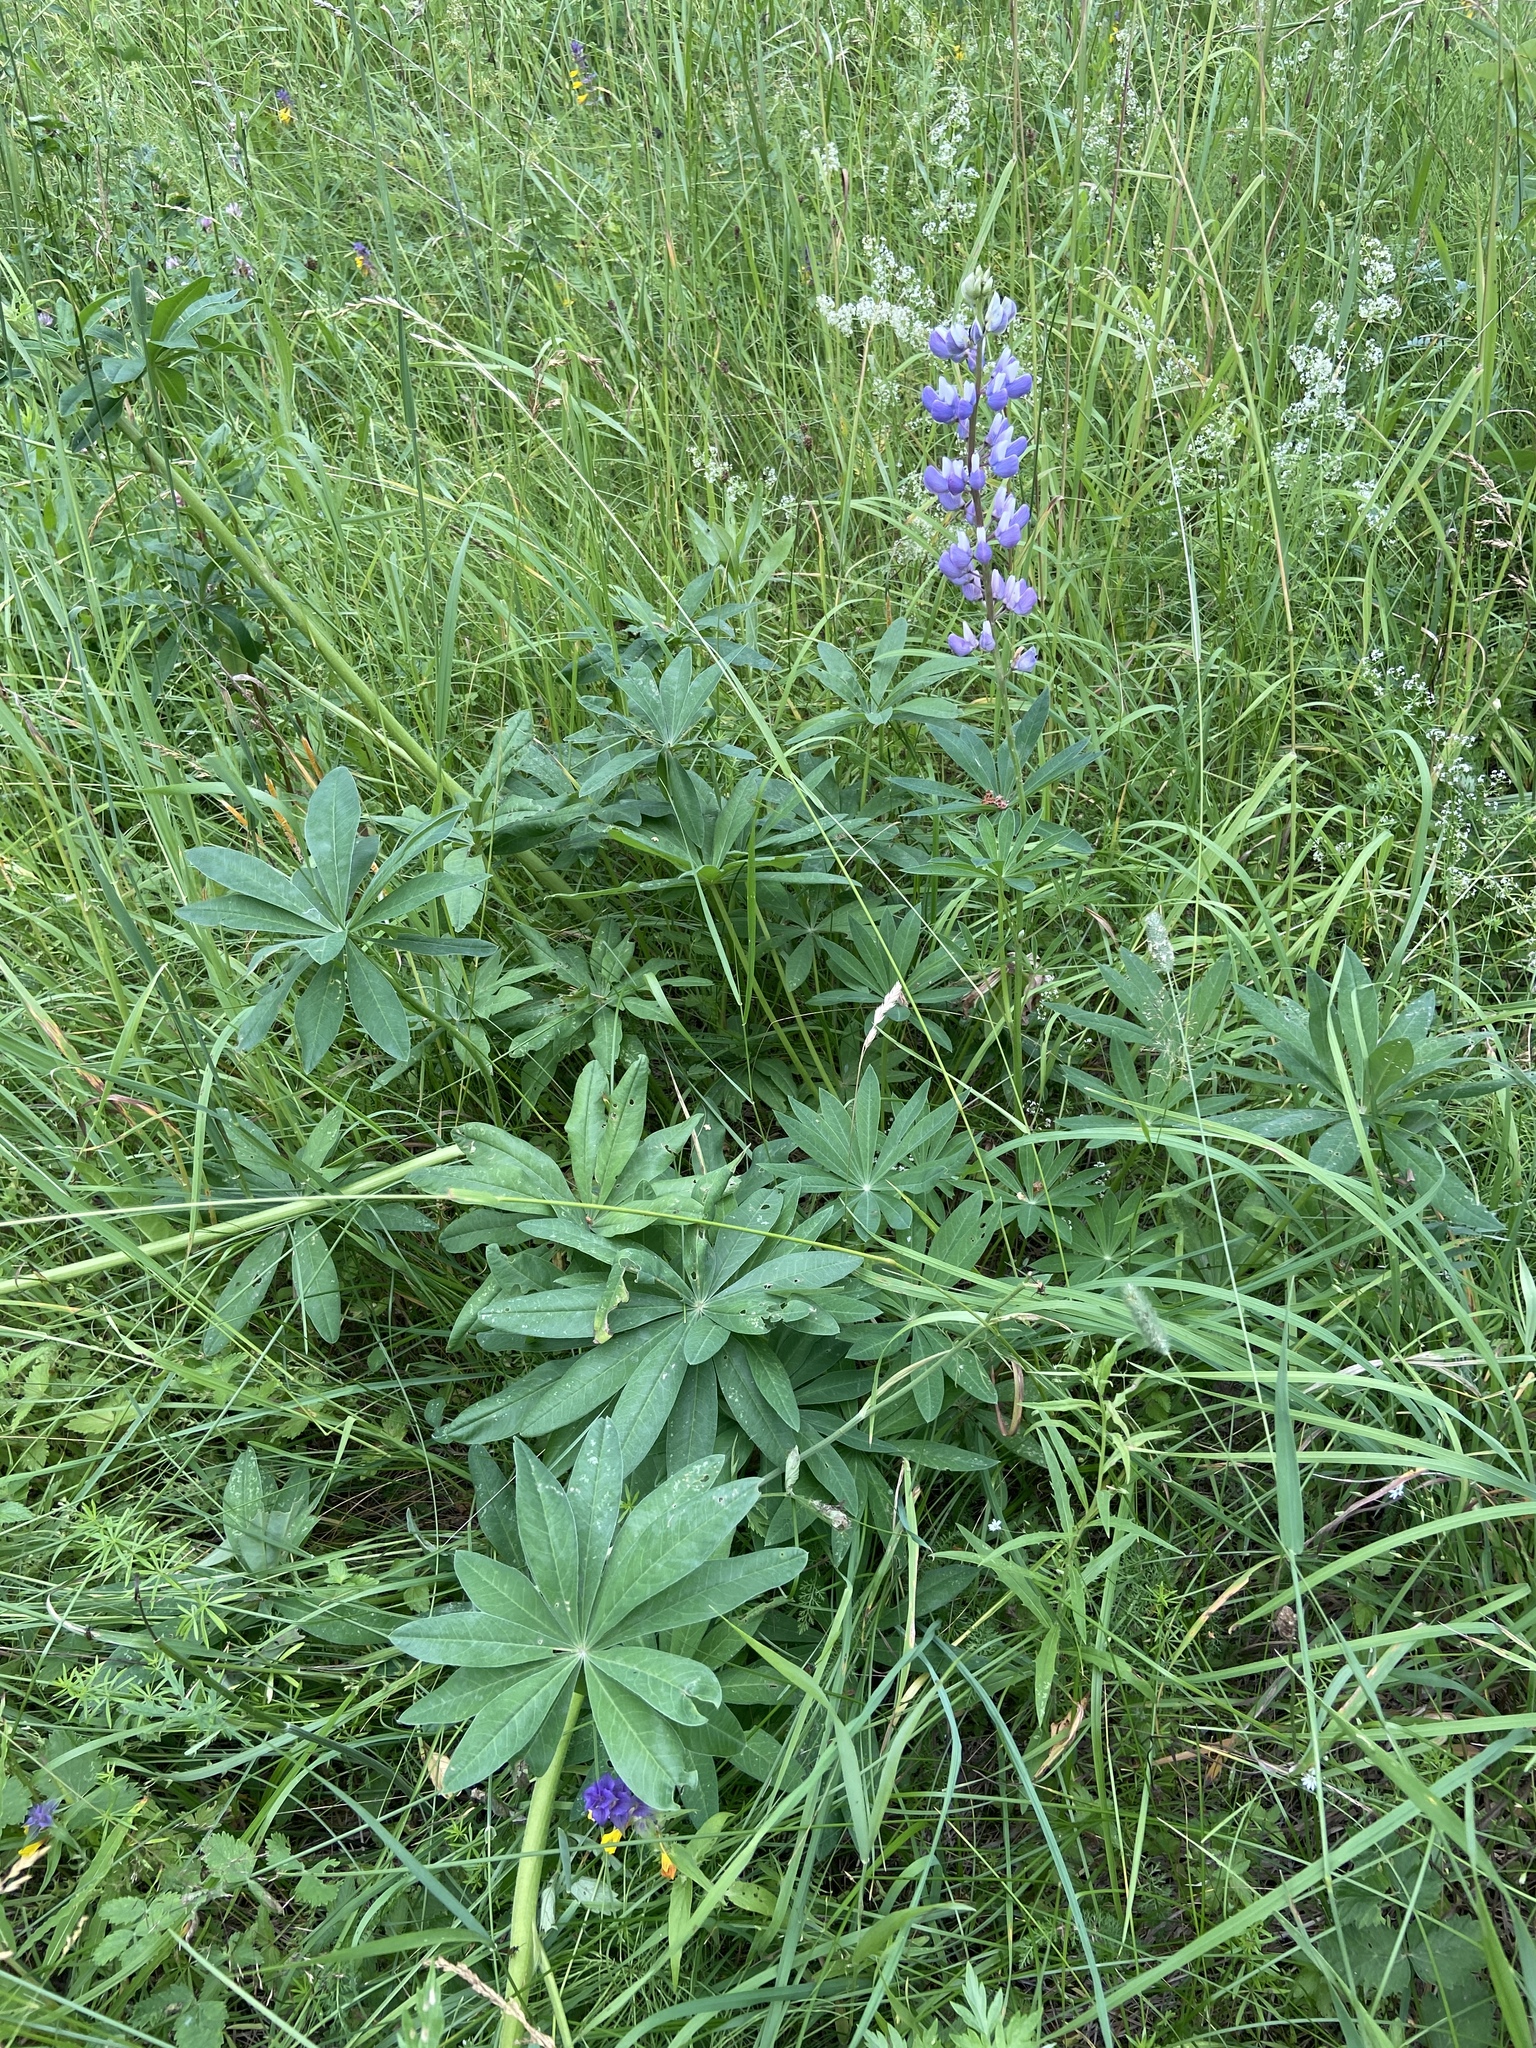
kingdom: Plantae
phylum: Tracheophyta
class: Magnoliopsida
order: Fabales
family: Fabaceae
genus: Lupinus
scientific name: Lupinus polyphyllus
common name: Garden lupin
